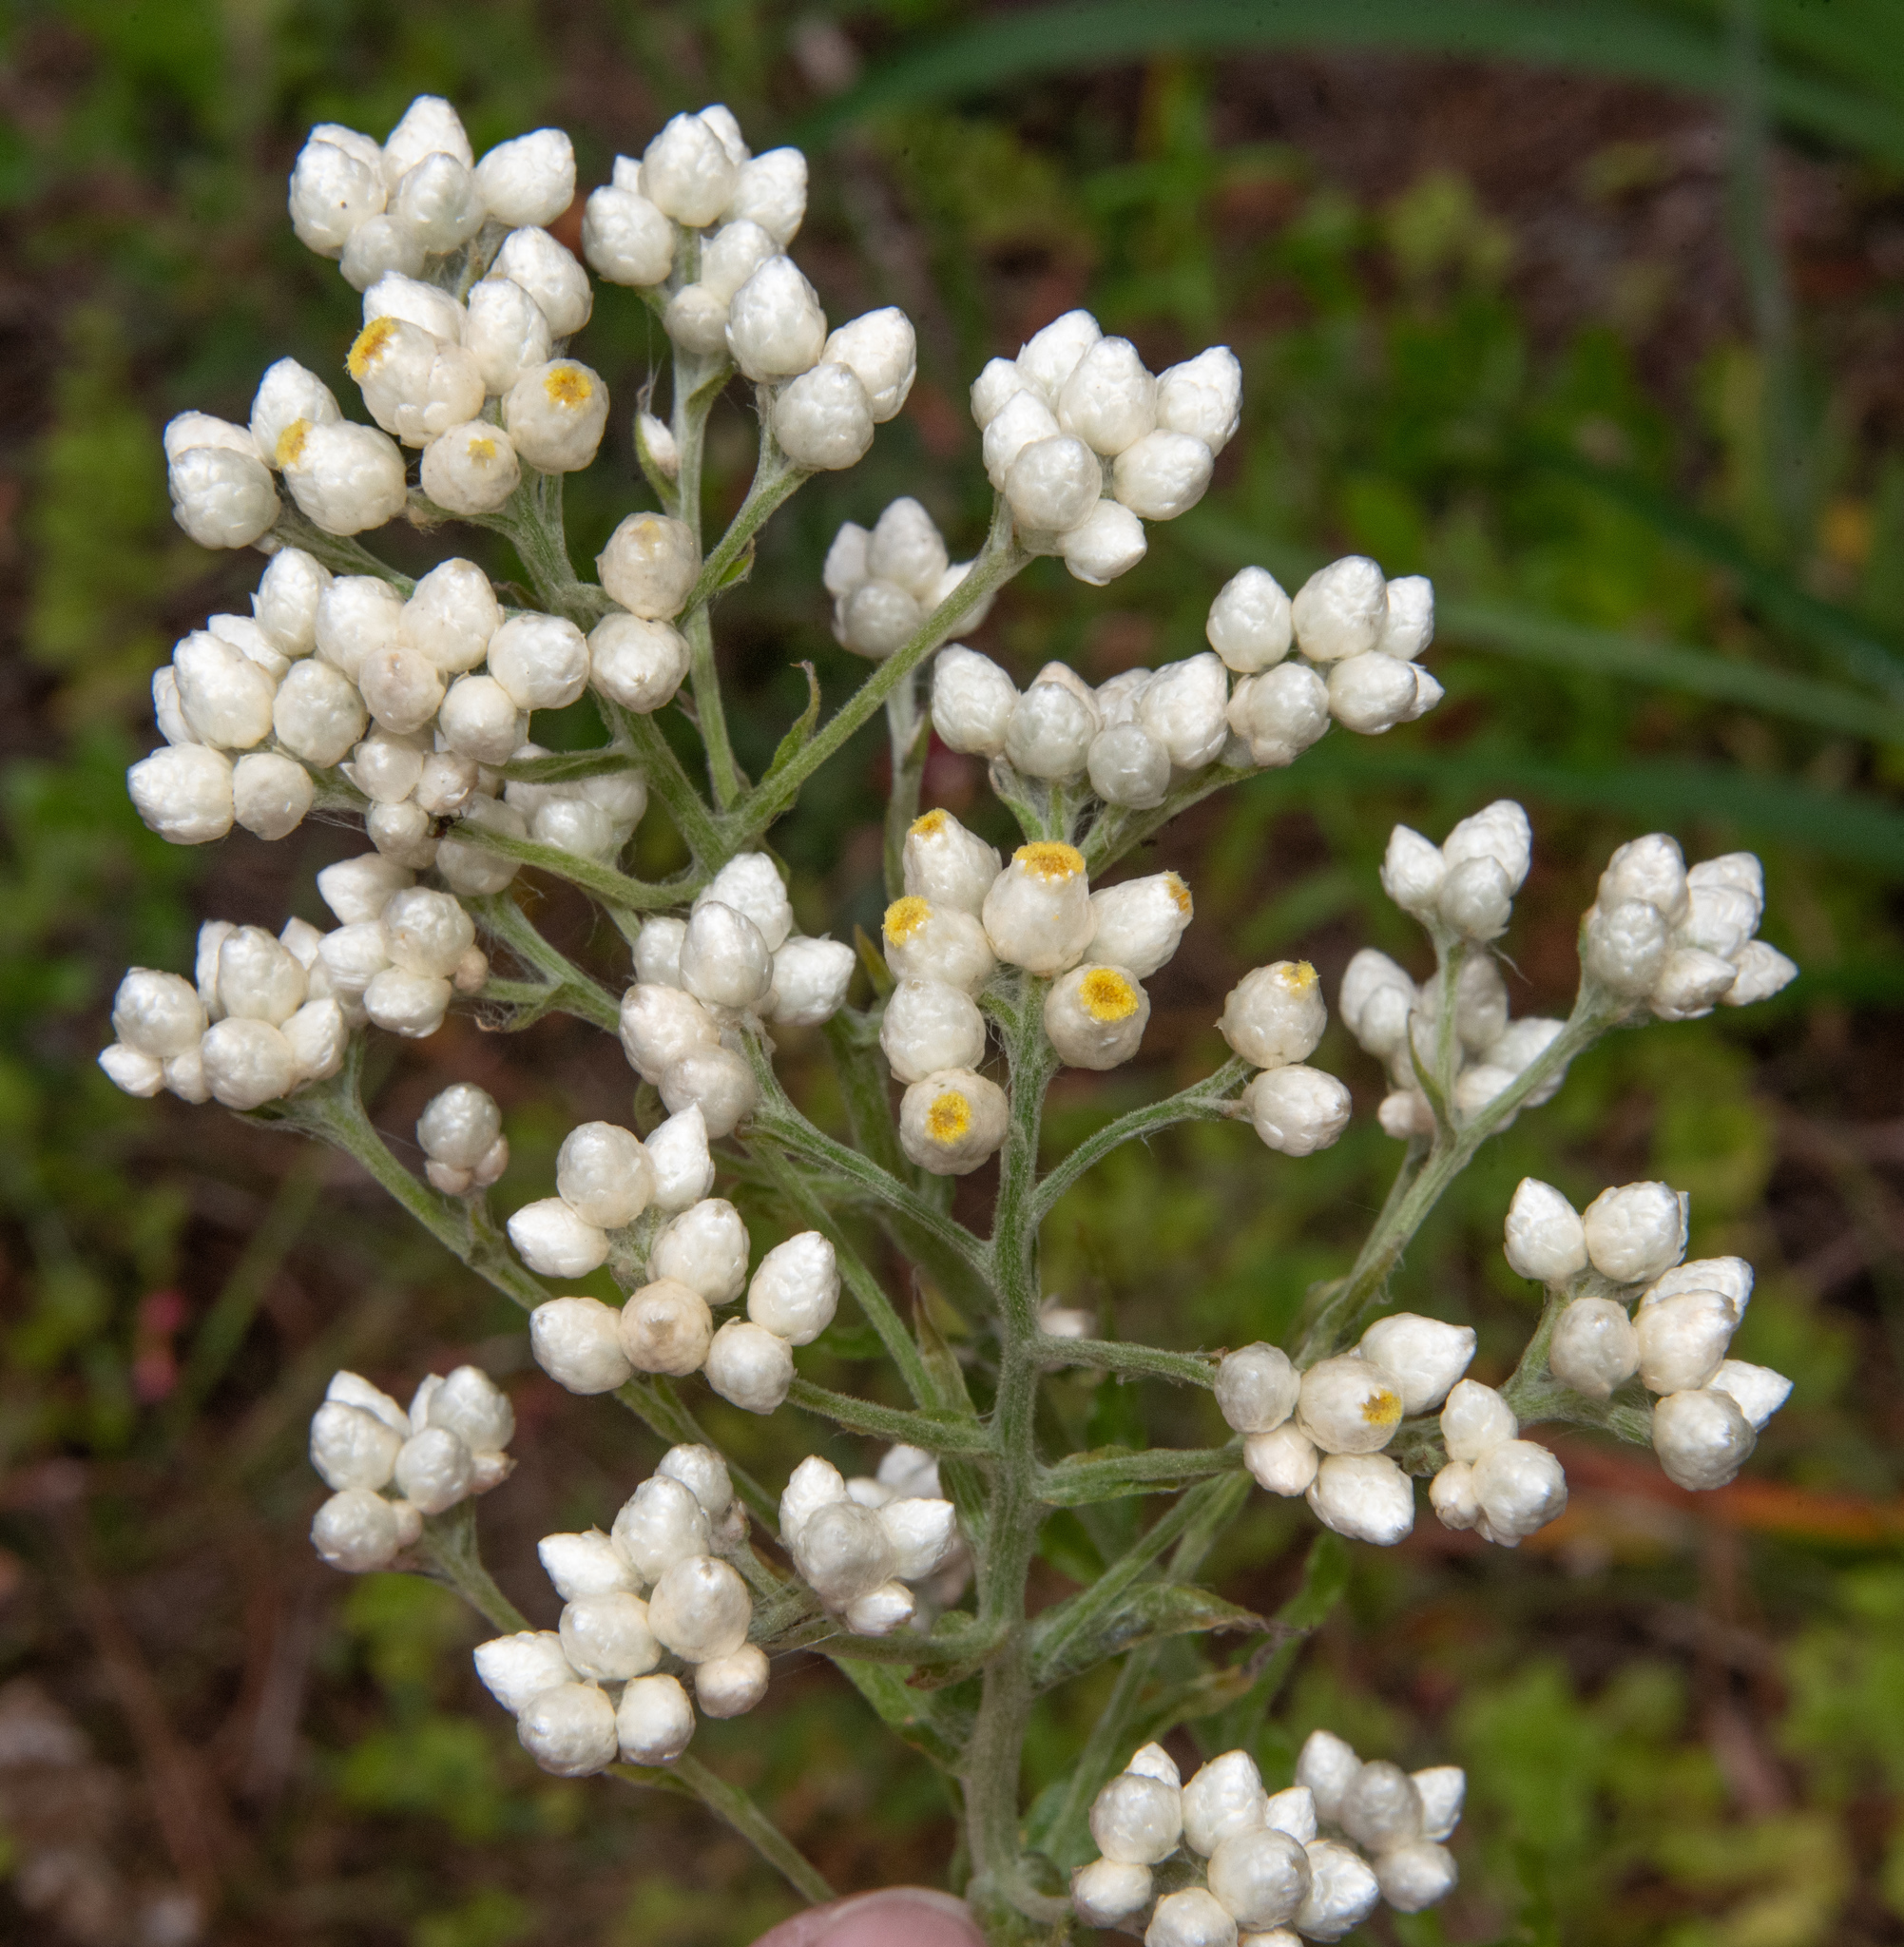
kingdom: Plantae
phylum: Tracheophyta
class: Magnoliopsida
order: Asterales
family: Asteraceae
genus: Pseudognaphalium
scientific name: Pseudognaphalium californicum
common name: California rabbit-tobacco
